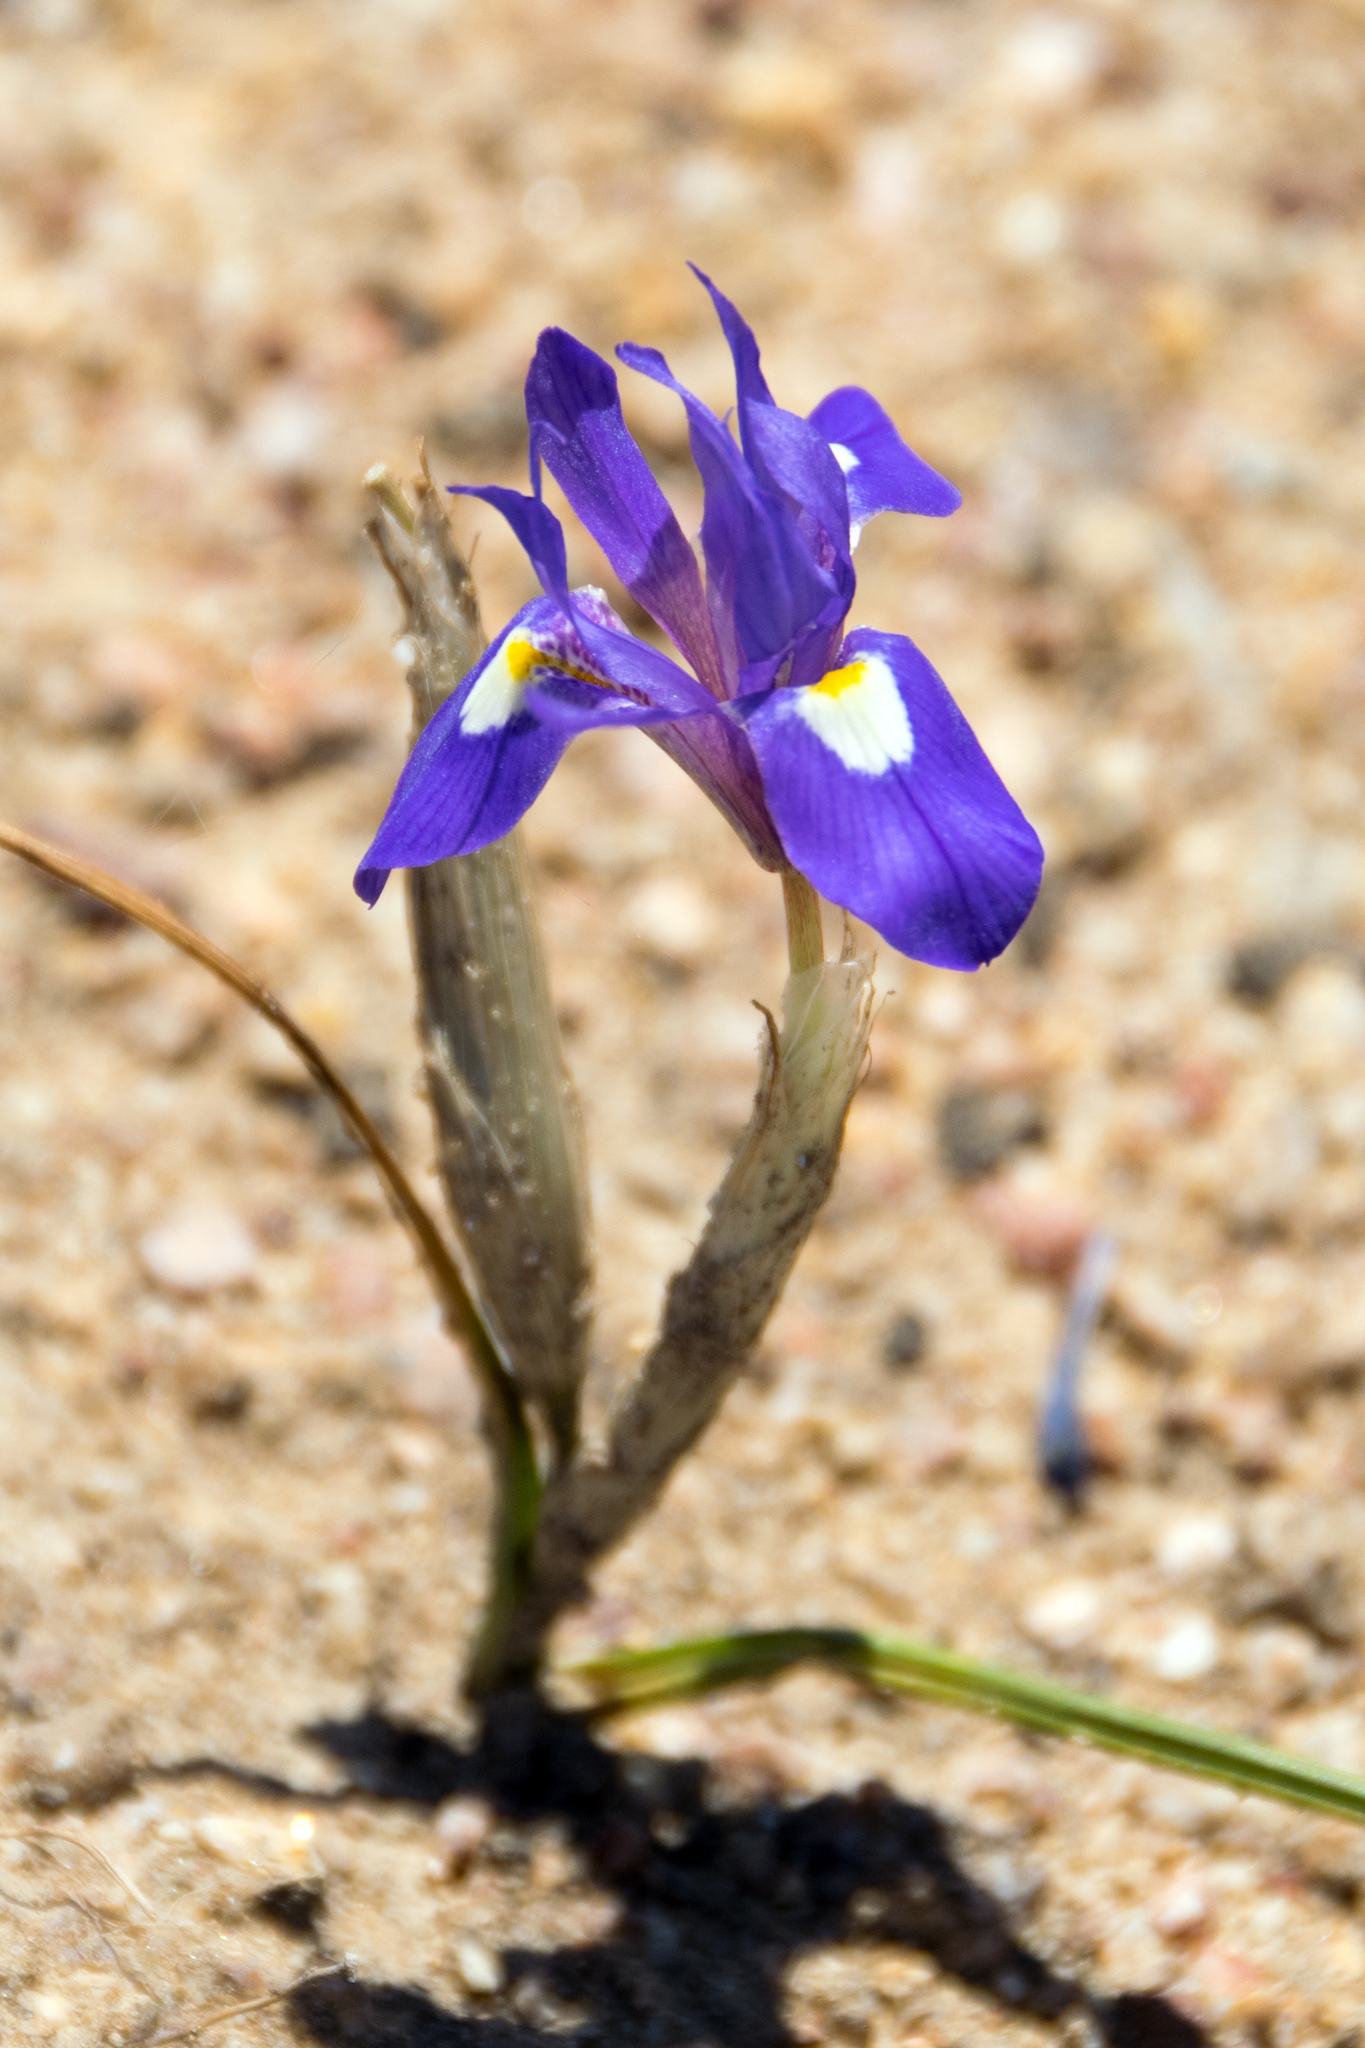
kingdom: Plantae
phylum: Tracheophyta
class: Liliopsida
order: Asparagales
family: Iridaceae
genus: Moraea
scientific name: Moraea sisyrinchium
